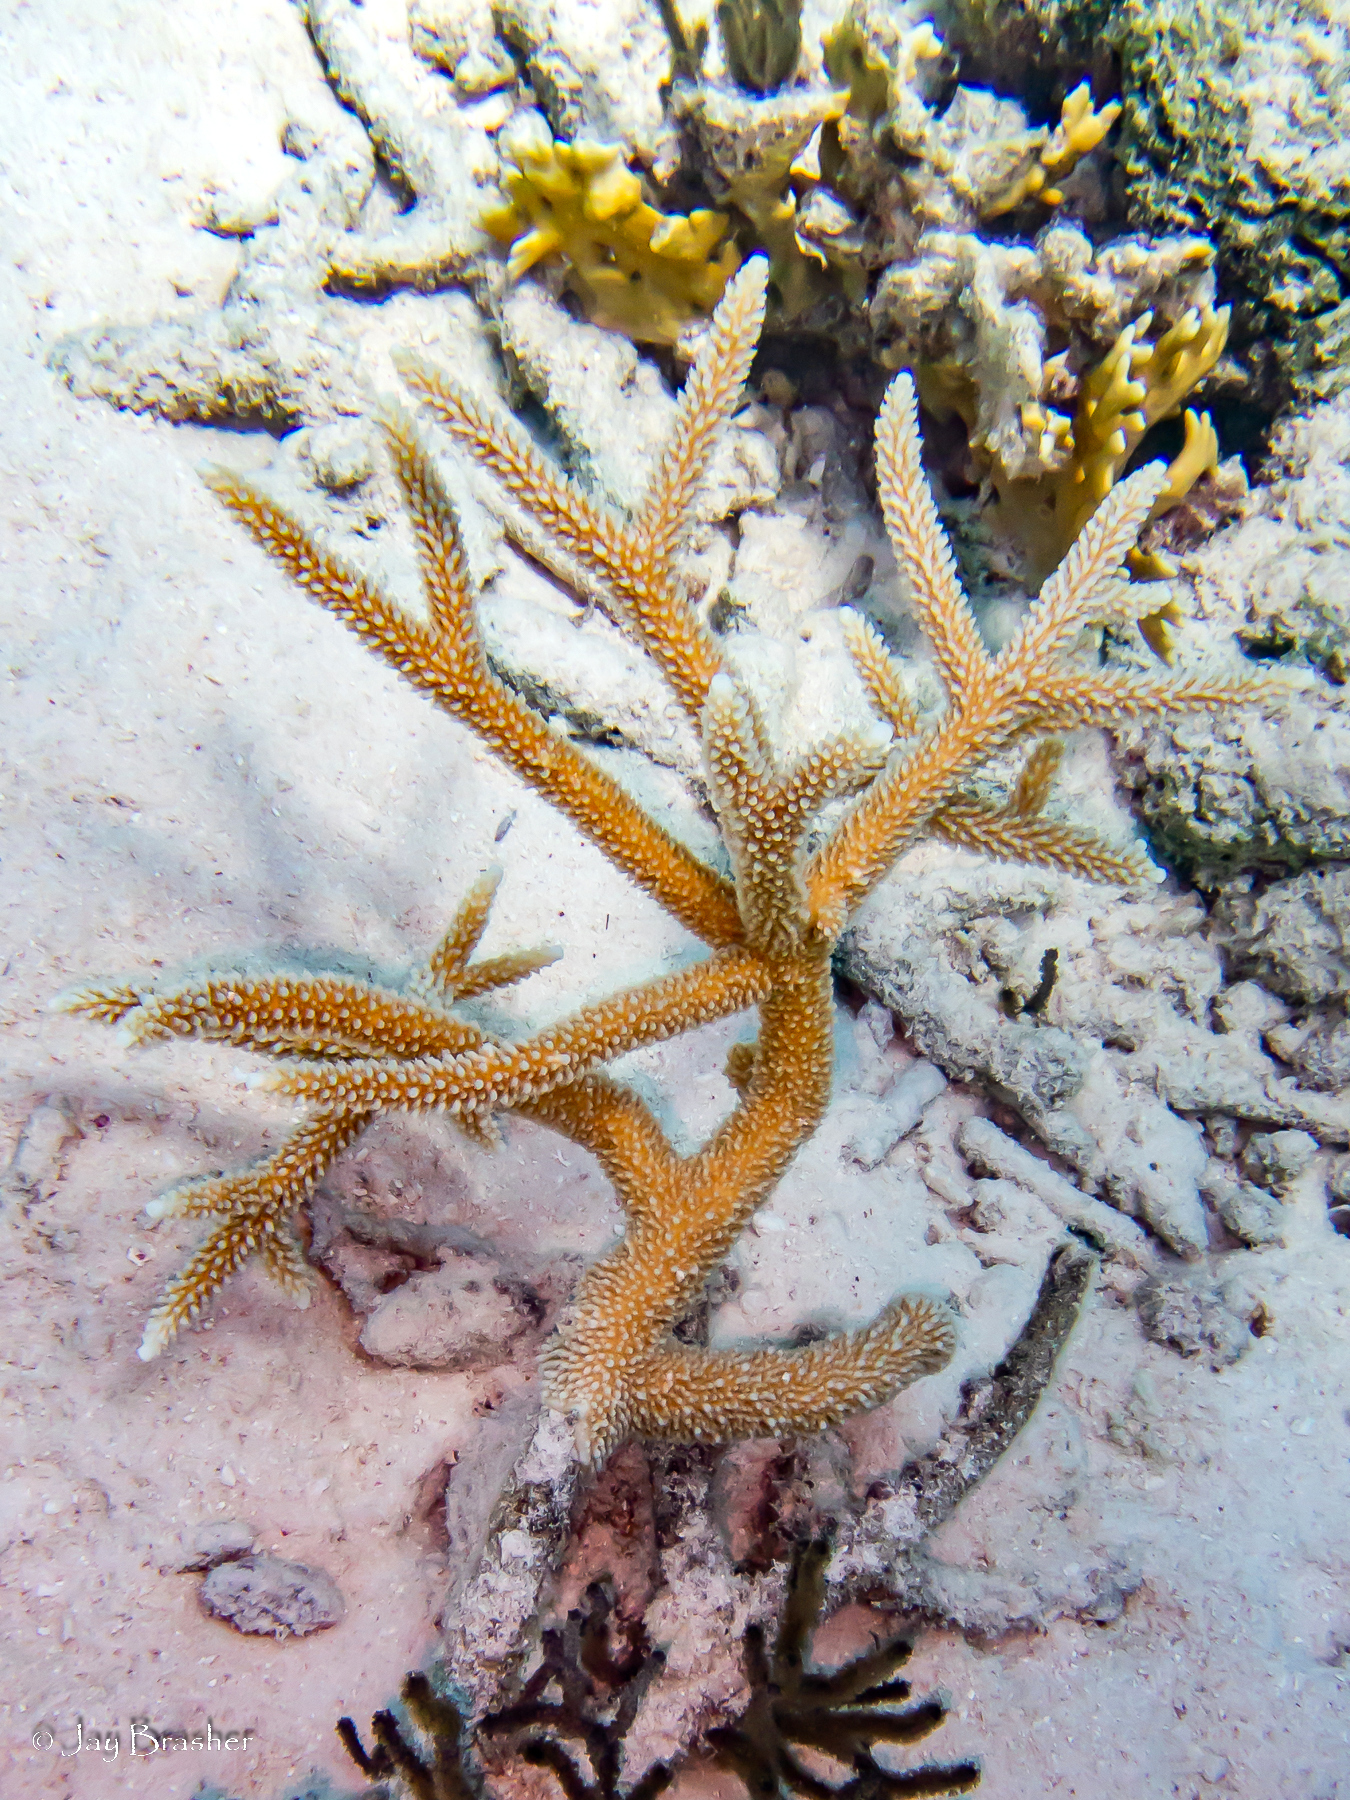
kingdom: Animalia
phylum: Cnidaria
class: Anthozoa
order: Scleractinia
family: Acroporidae
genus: Acropora
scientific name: Acropora cervicornis
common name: Staghorn coral
